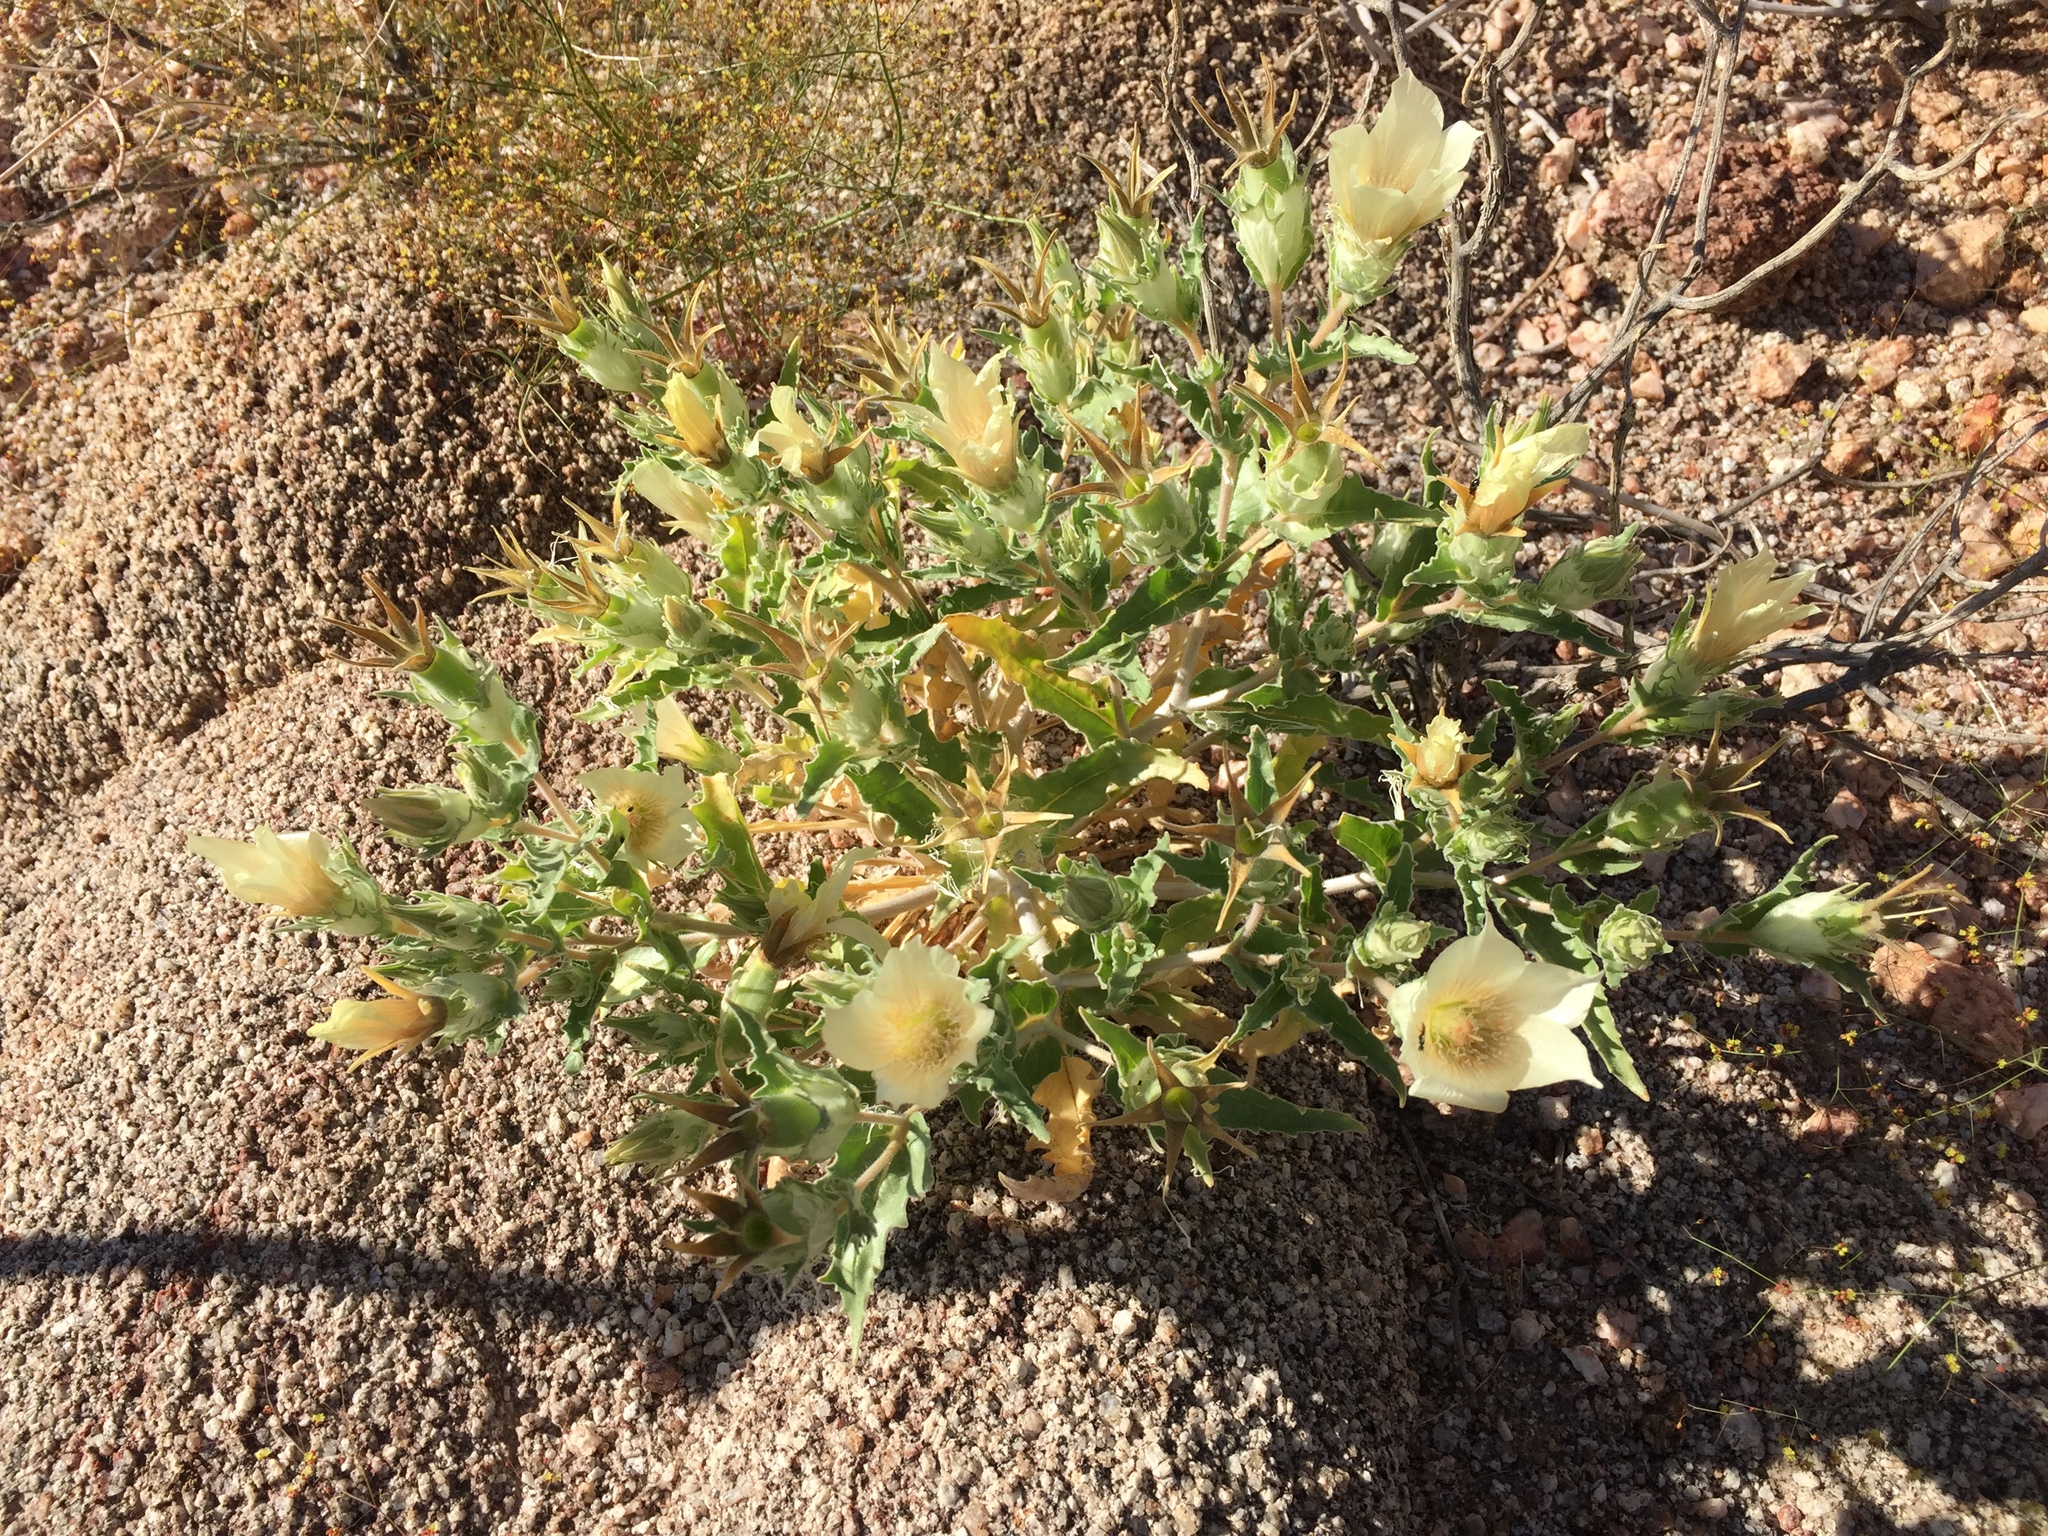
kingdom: Plantae
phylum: Tracheophyta
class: Magnoliopsida
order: Cornales
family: Loasaceae
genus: Mentzelia
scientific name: Mentzelia involucrata
